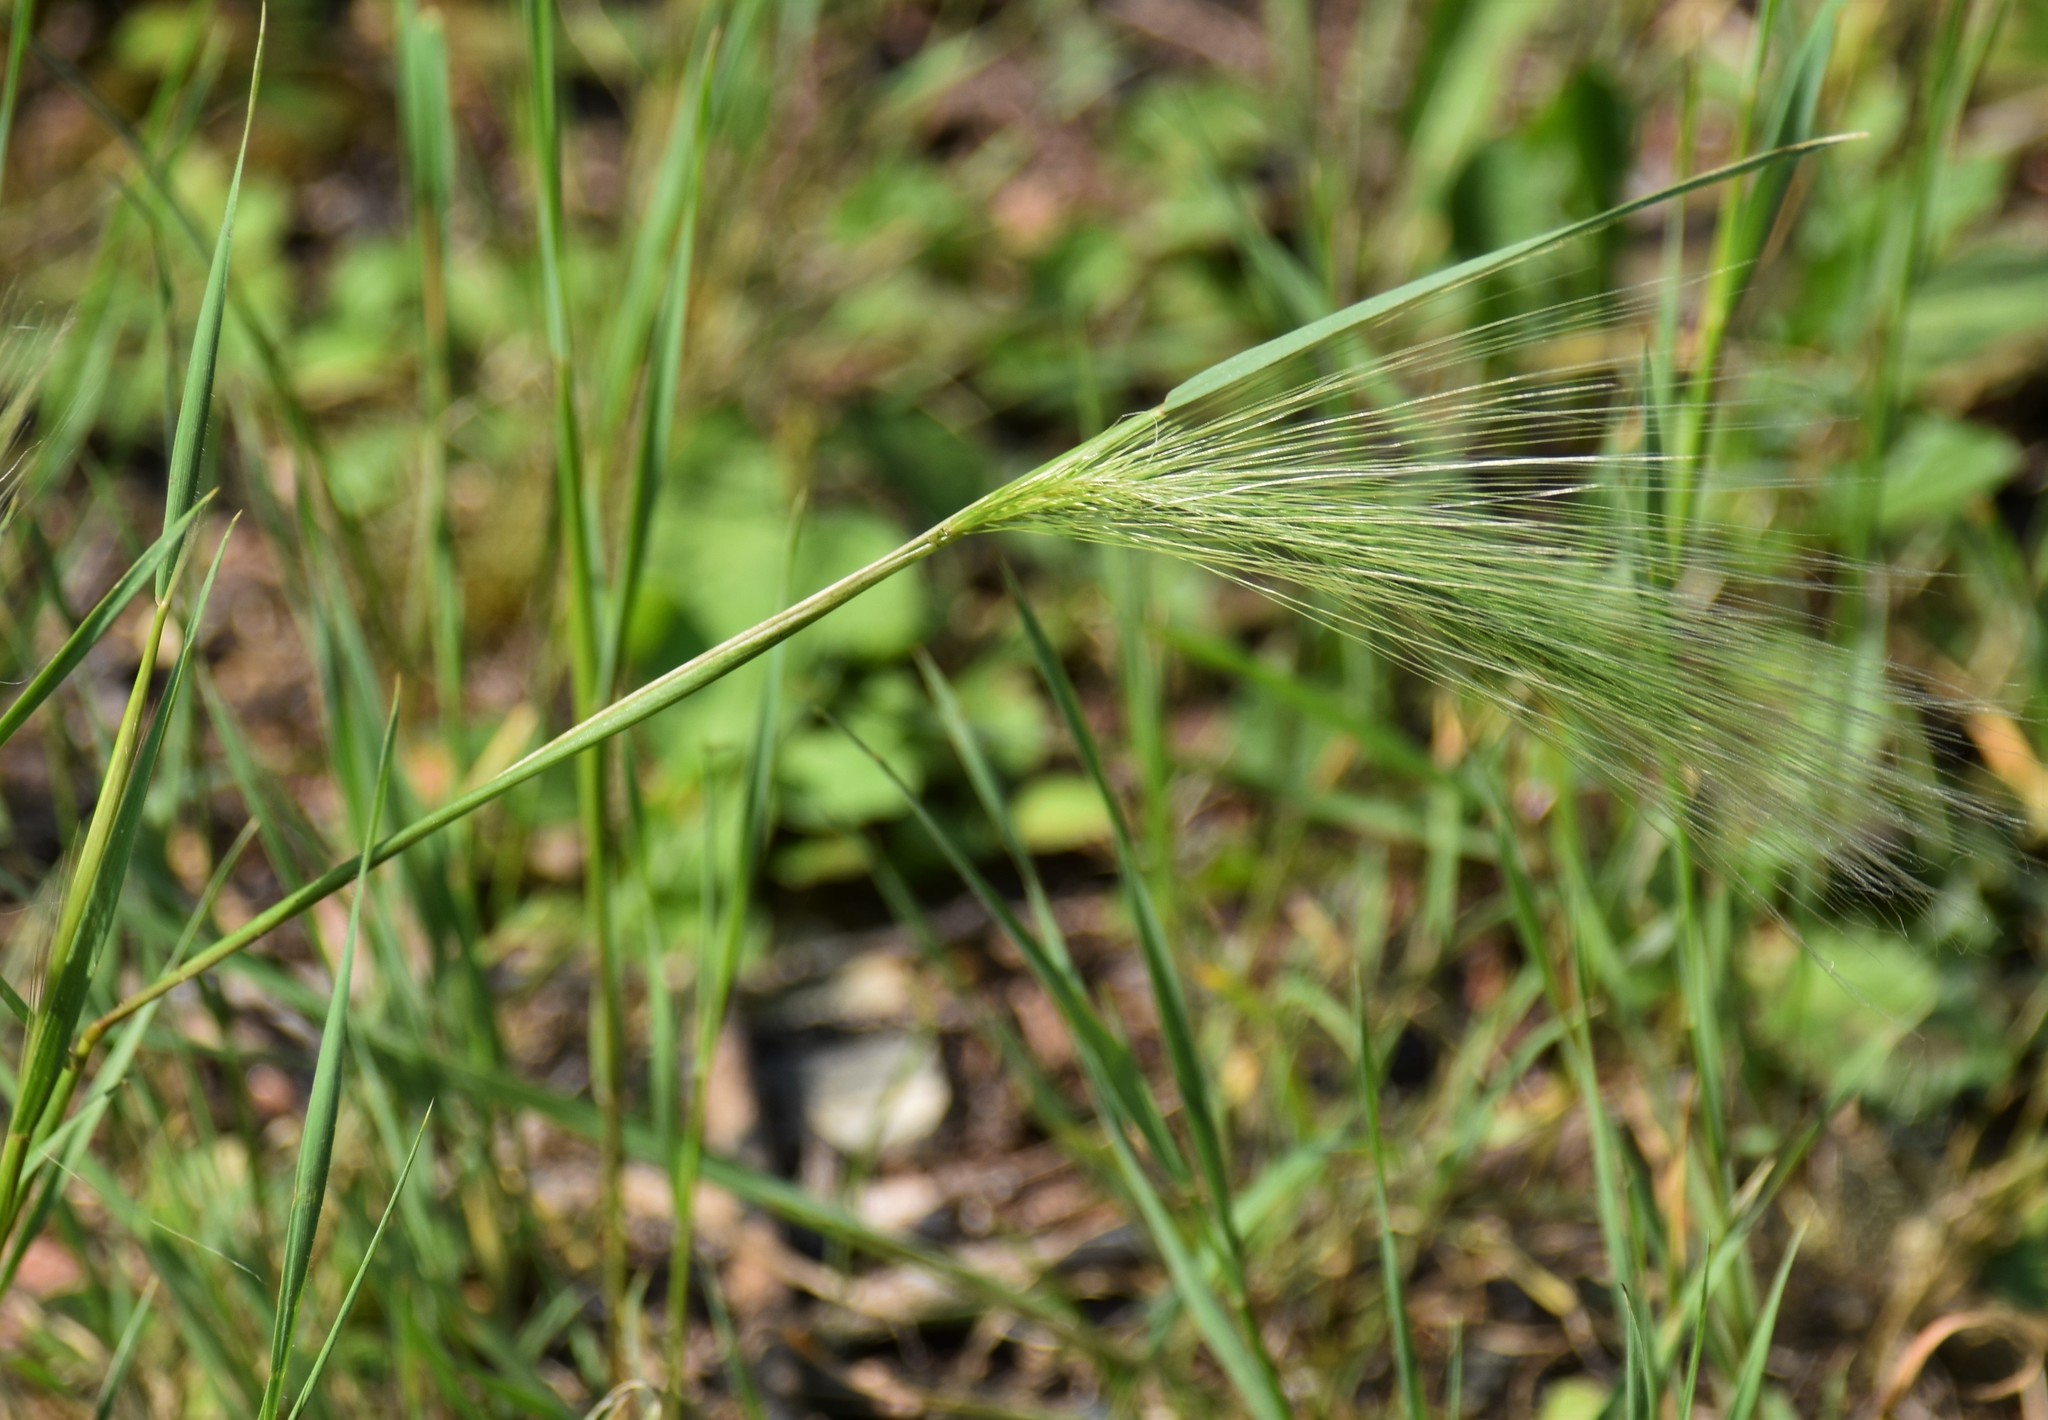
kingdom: Plantae
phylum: Tracheophyta
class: Liliopsida
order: Poales
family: Poaceae
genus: Hordeum
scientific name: Hordeum jubatum
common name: Foxtail barley
